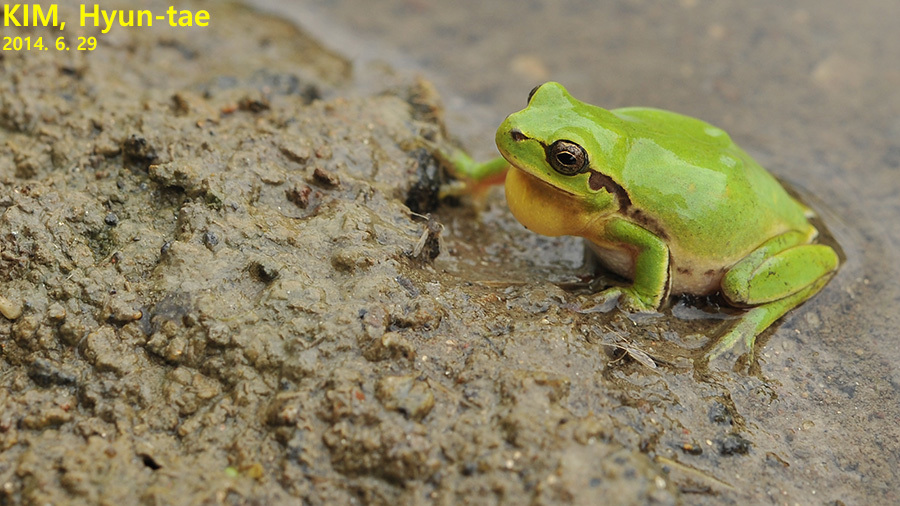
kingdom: Animalia
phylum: Chordata
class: Amphibia
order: Anura
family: Hylidae
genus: Dryophytes
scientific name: Dryophytes immaculatus
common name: North china treefrog
